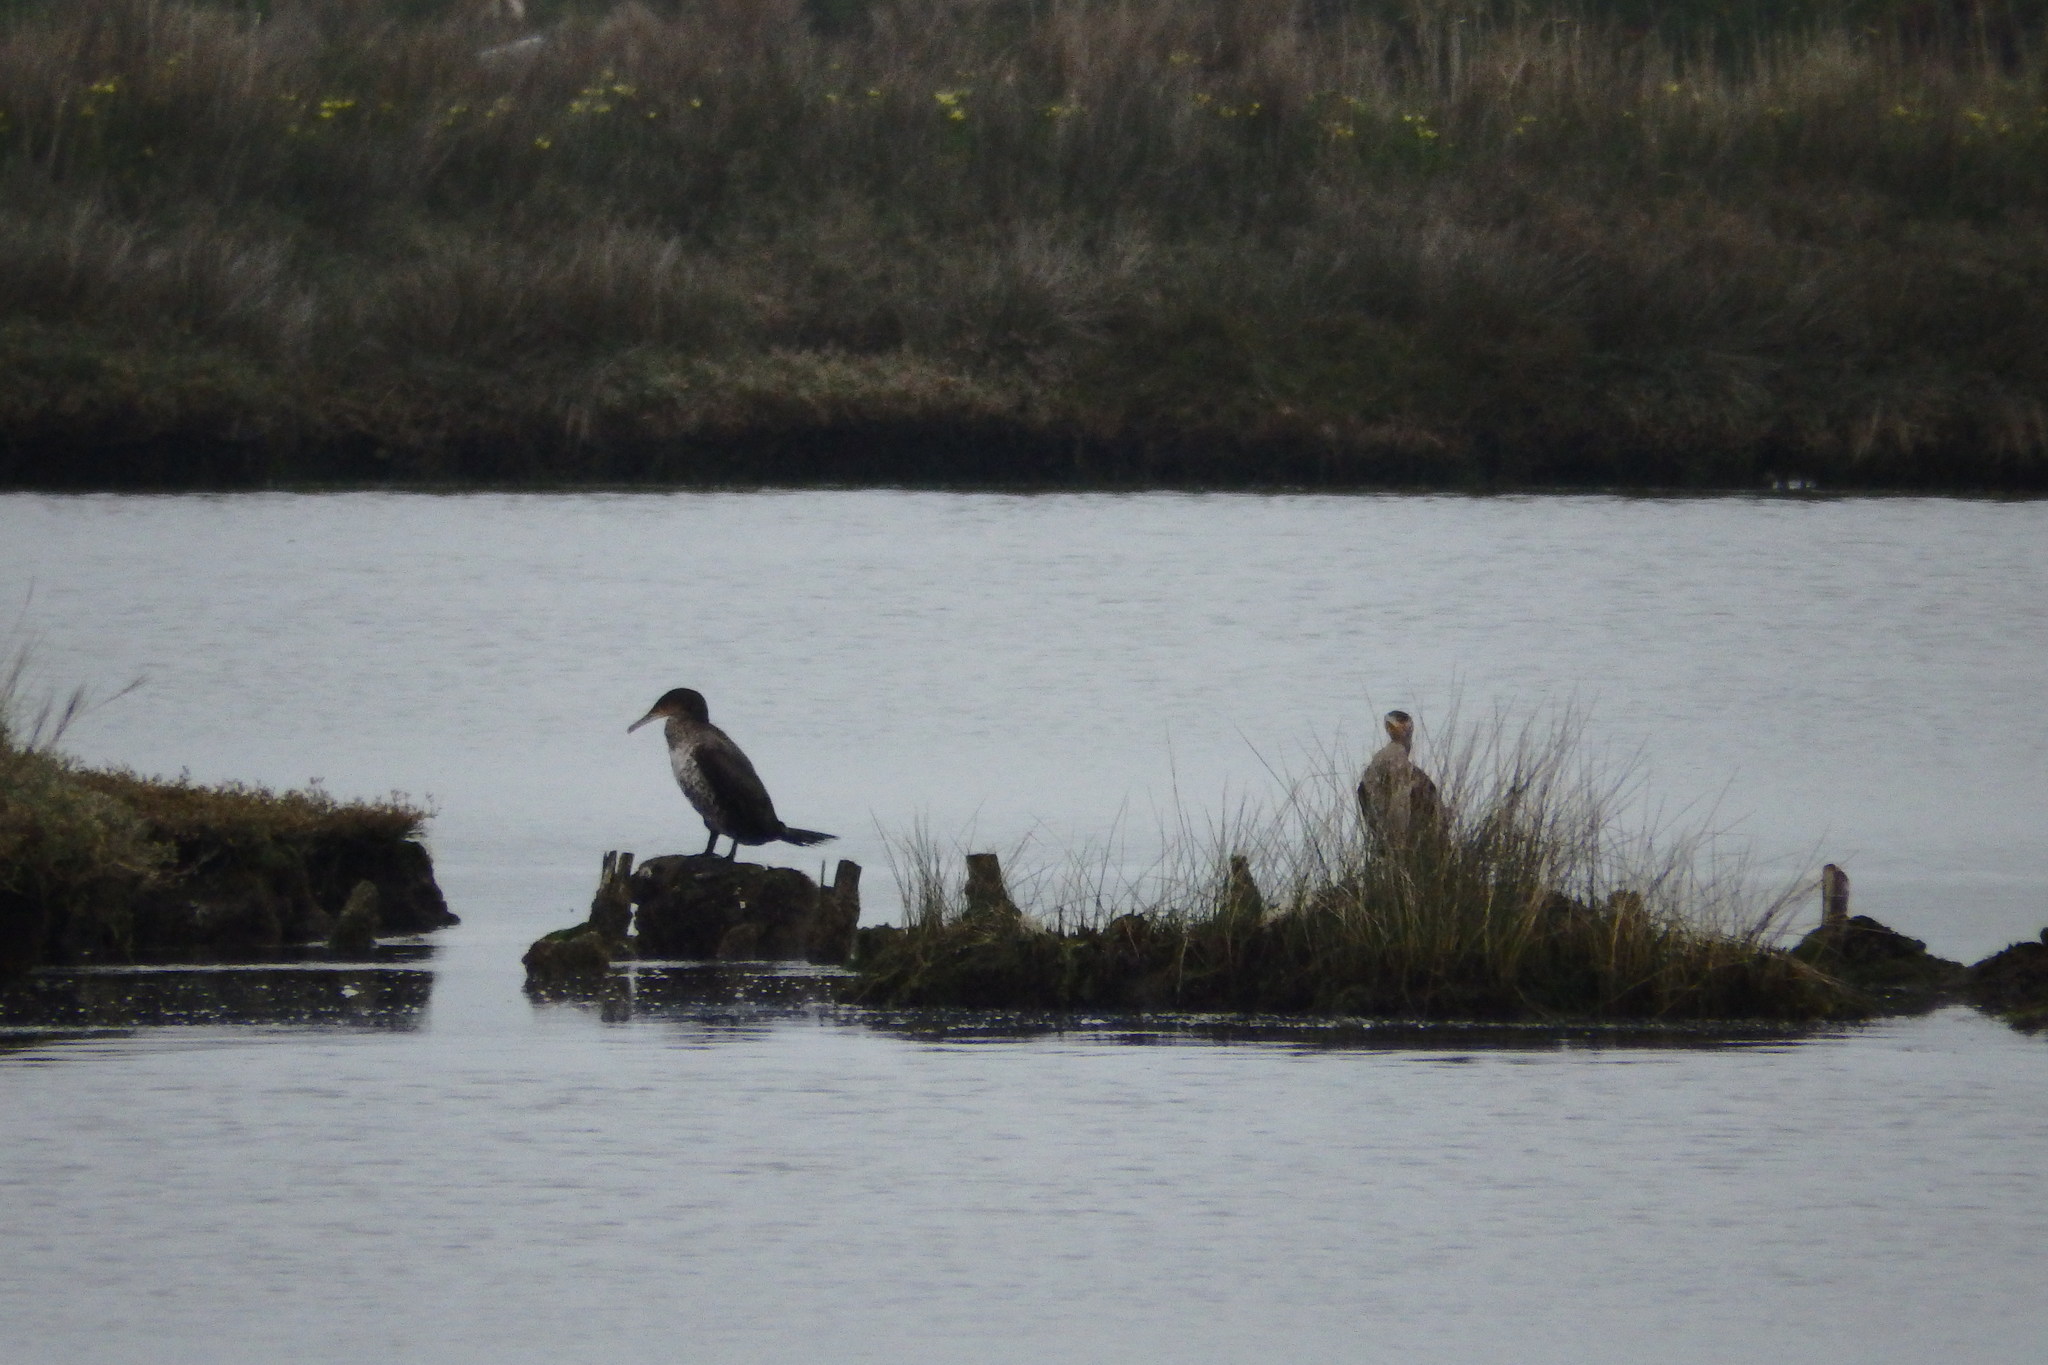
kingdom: Animalia
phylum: Chordata
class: Aves
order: Suliformes
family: Phalacrocoracidae
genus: Phalacrocorax
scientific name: Phalacrocorax carbo
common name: Great cormorant
